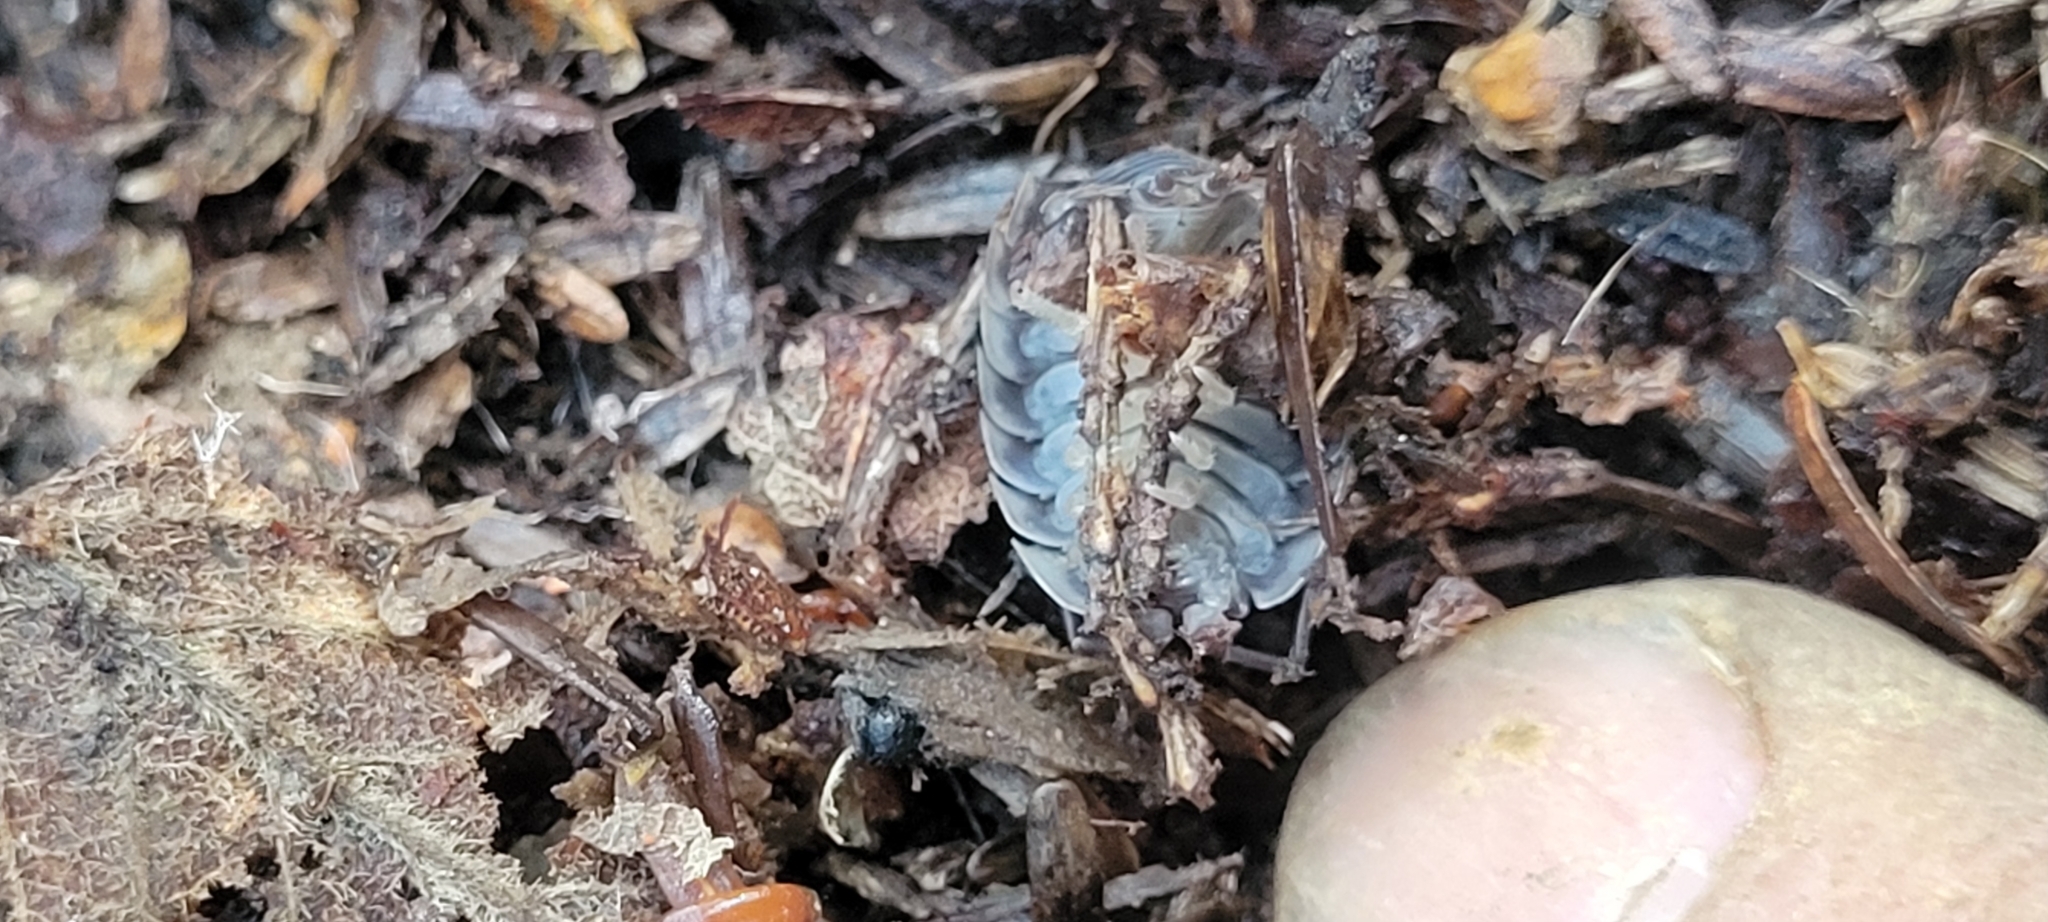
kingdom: Animalia
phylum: Arthropoda
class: Malacostraca
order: Isopoda
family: Oniscidae
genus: Oniscus
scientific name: Oniscus asellus
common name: Common shiny woodlouse
